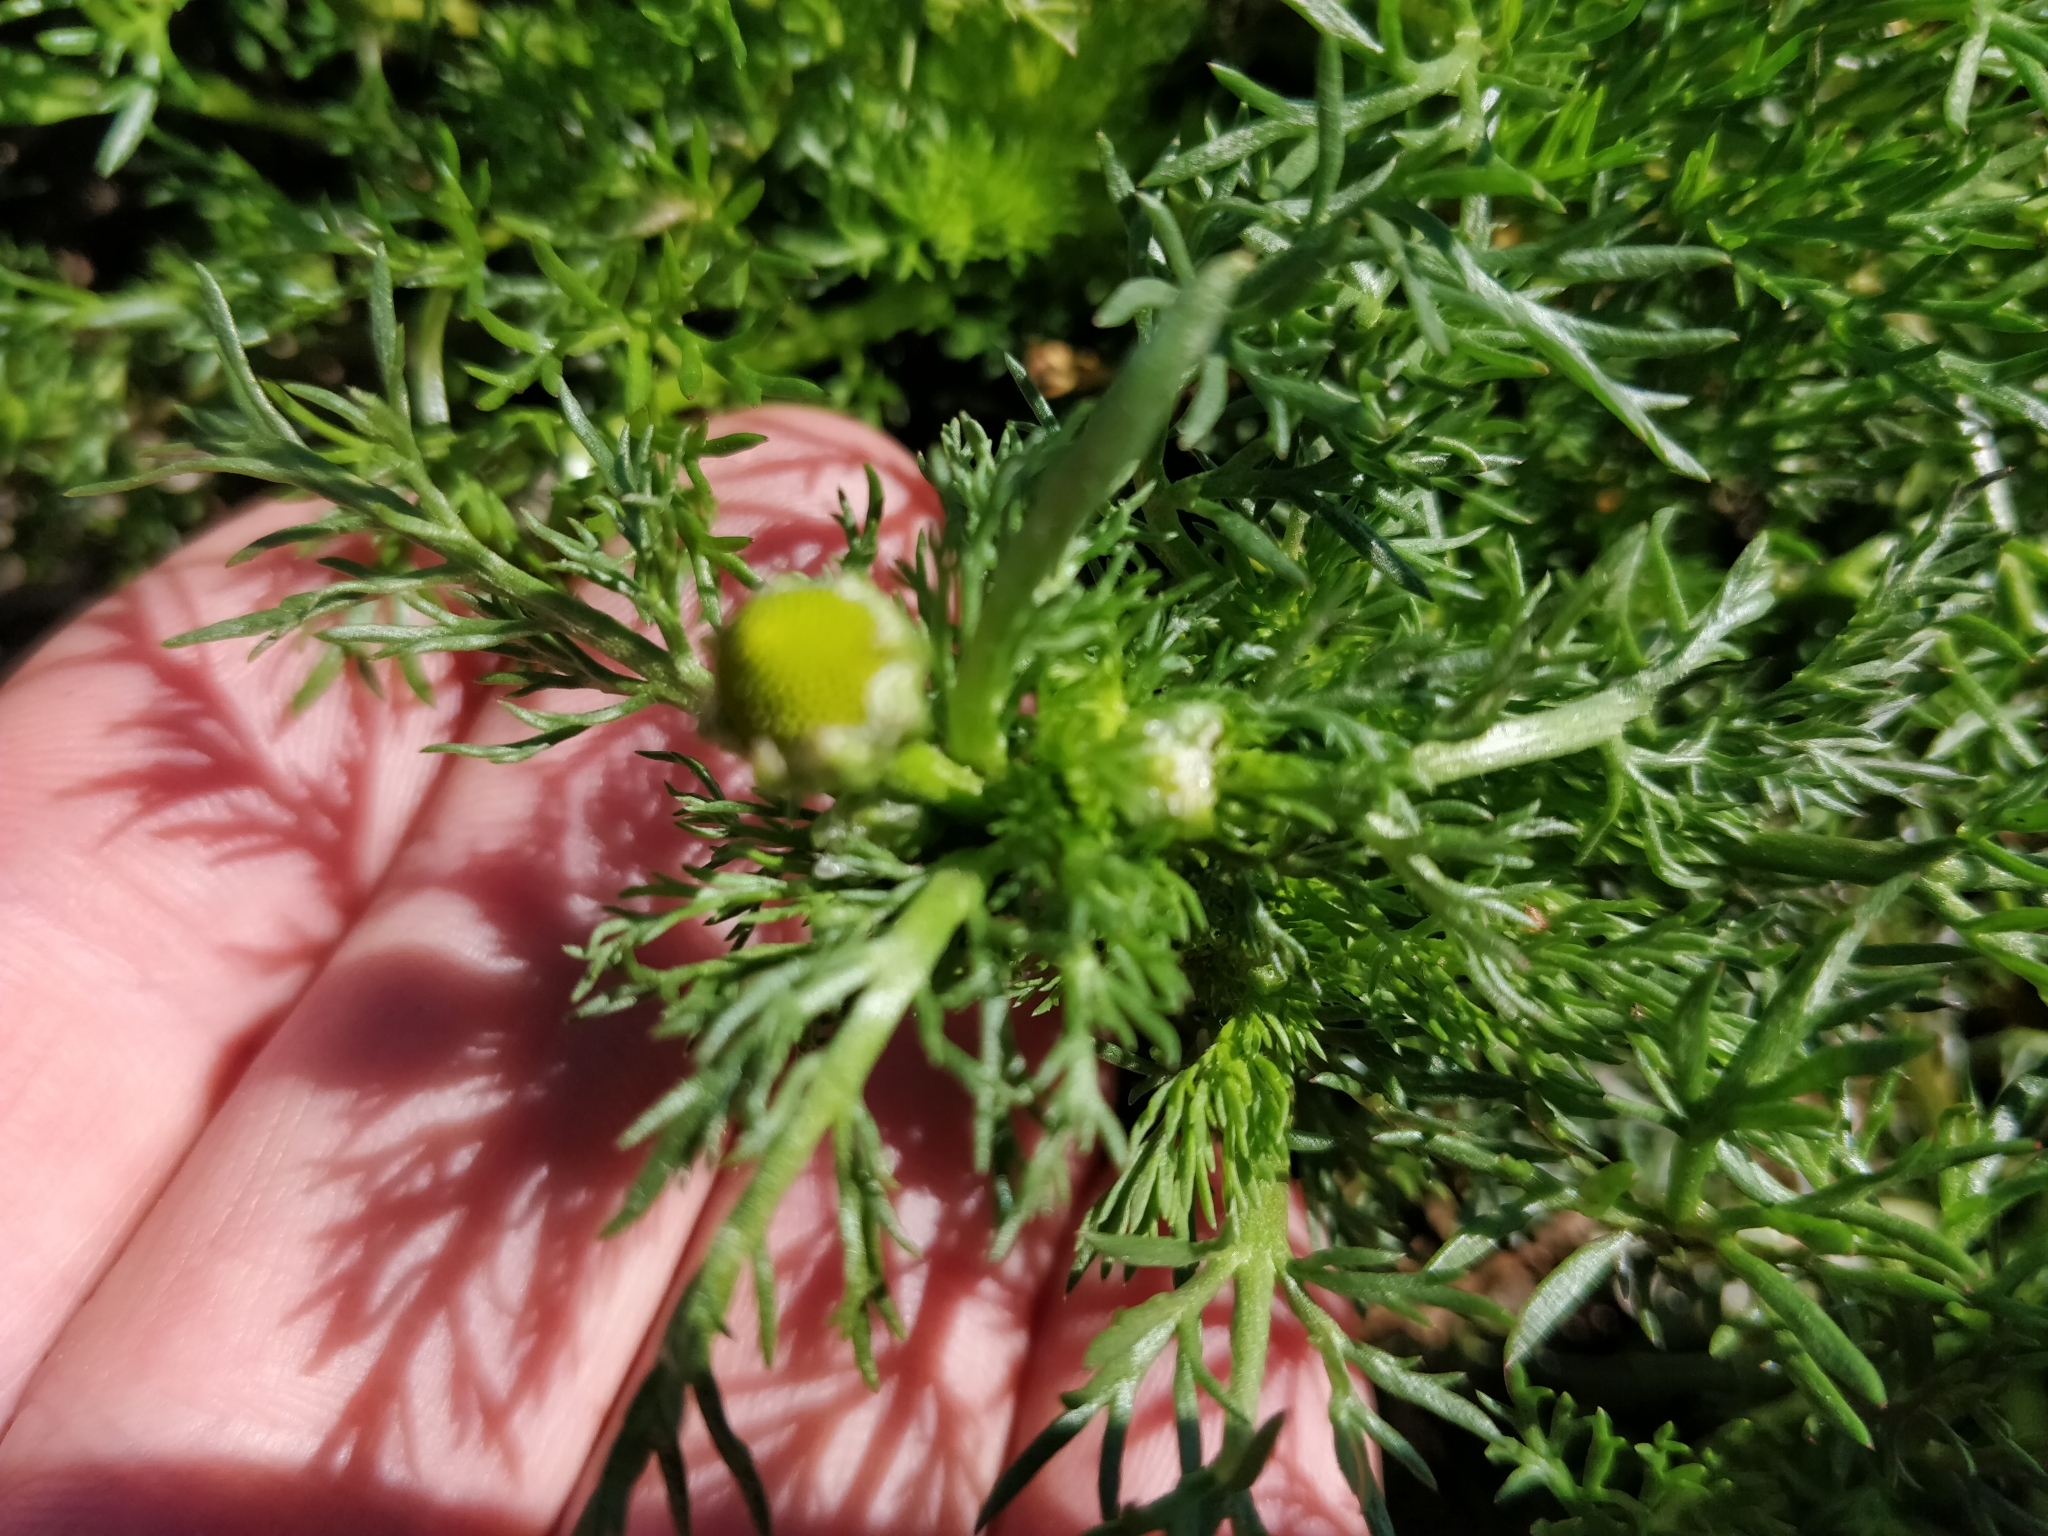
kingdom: Plantae
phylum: Tracheophyta
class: Magnoliopsida
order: Asterales
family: Asteraceae
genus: Matricaria
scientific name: Matricaria discoidea
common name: Disc mayweed
